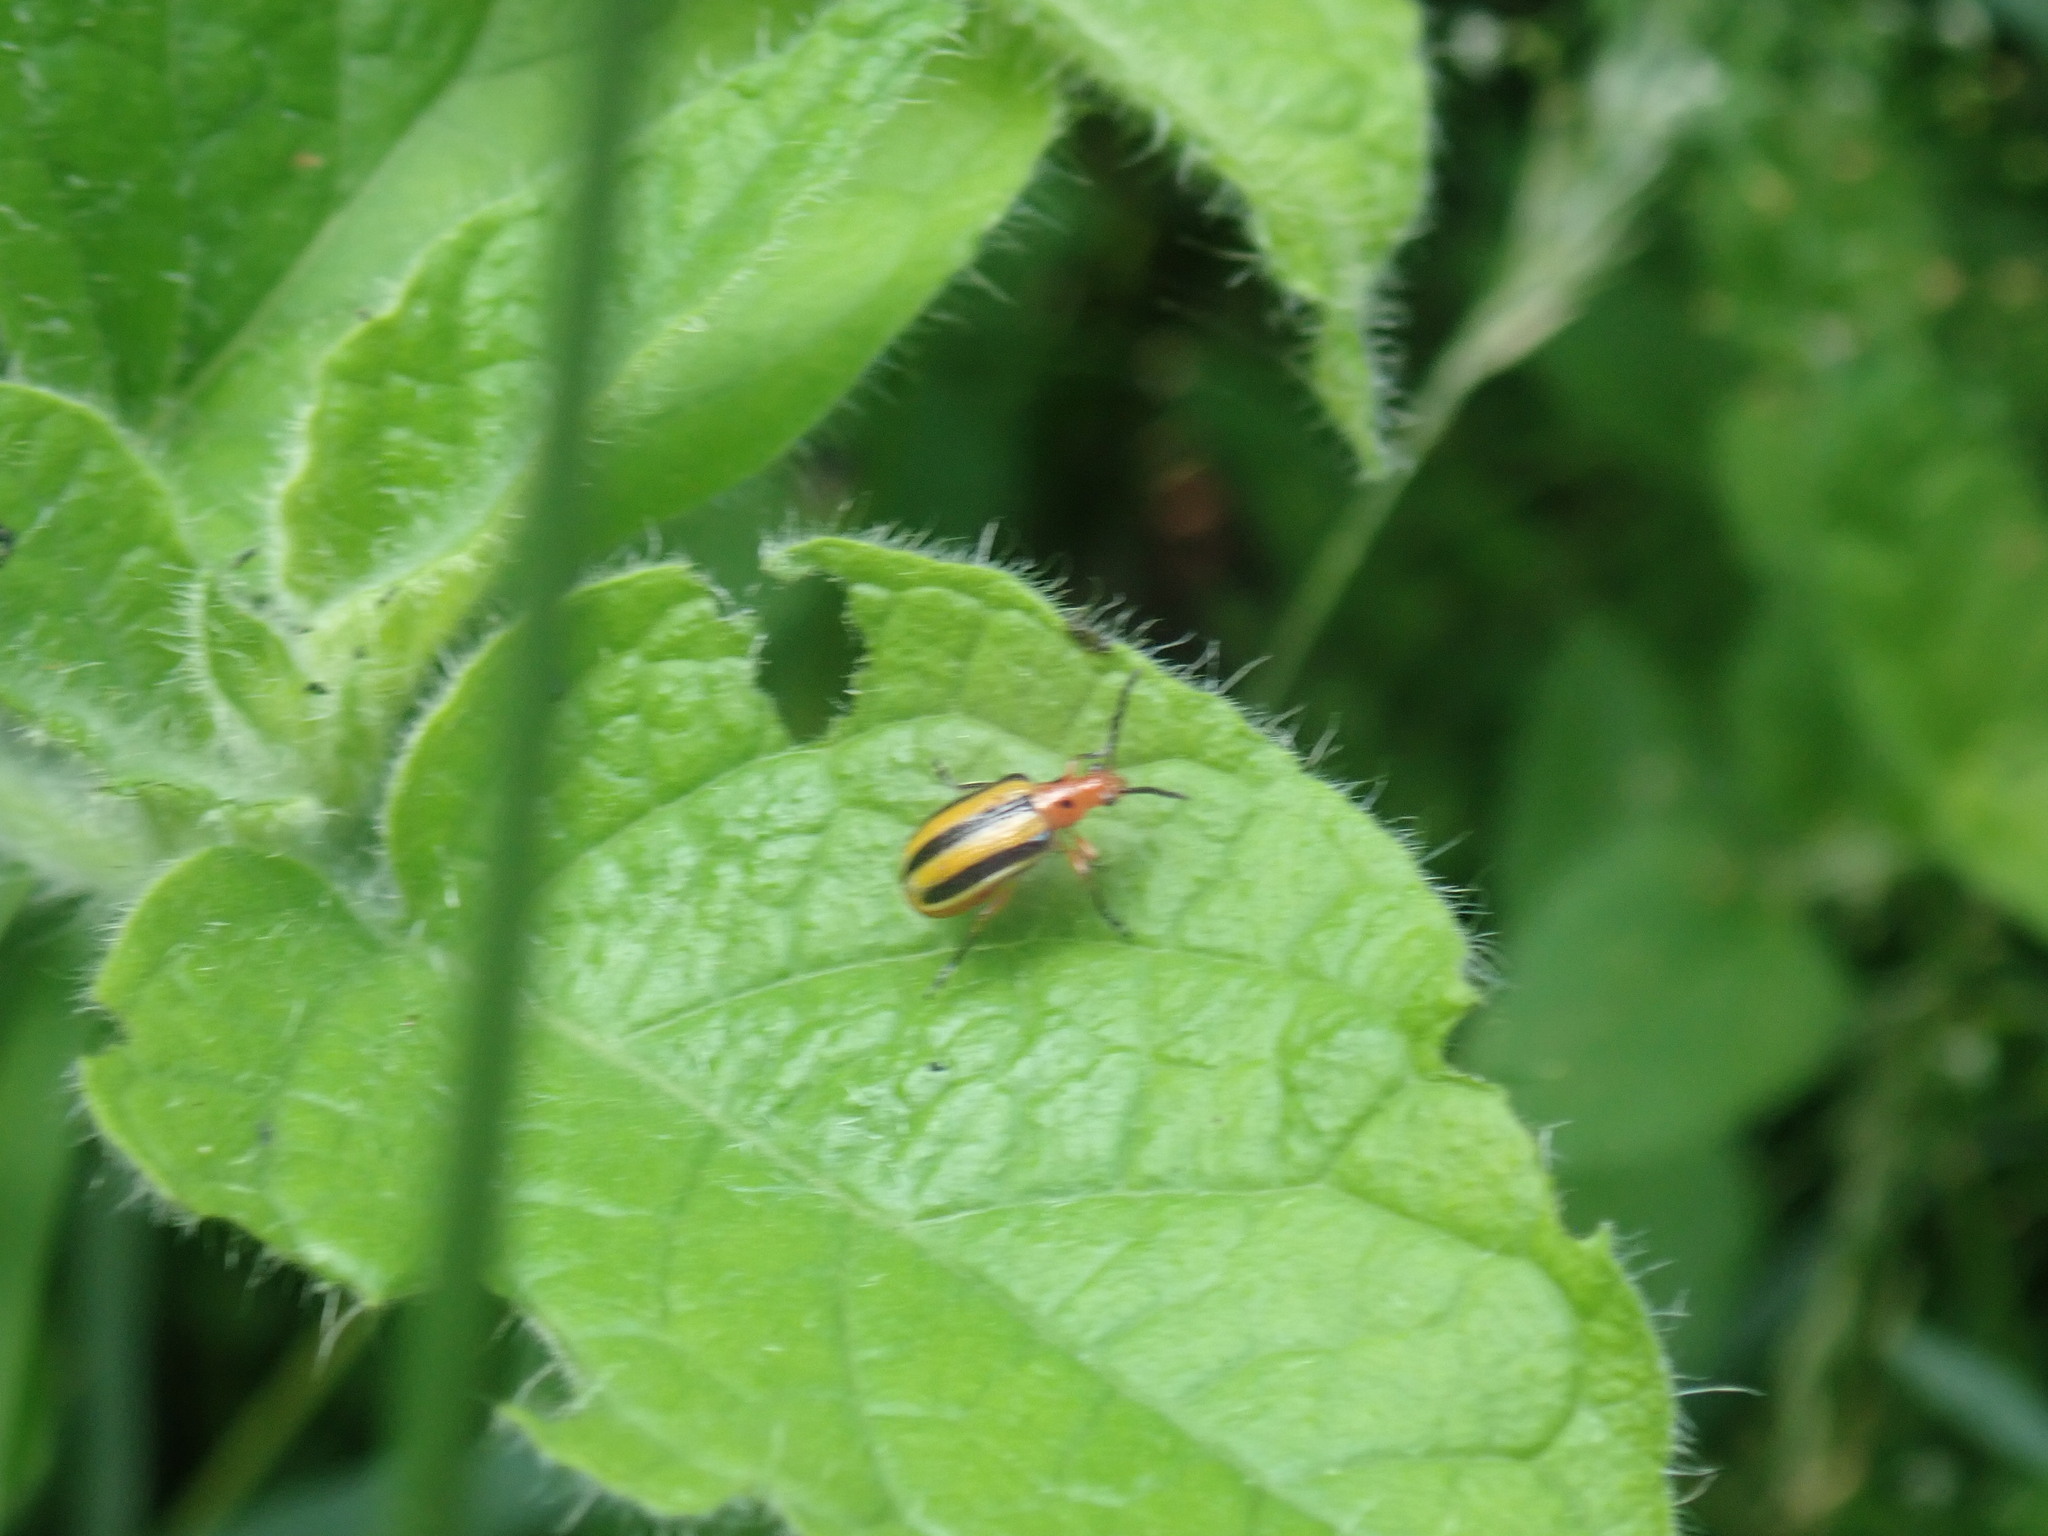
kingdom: Animalia
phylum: Arthropoda
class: Insecta
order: Coleoptera
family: Chrysomelidae
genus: Lema
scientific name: Lema daturaphila
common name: Leaf beetle
